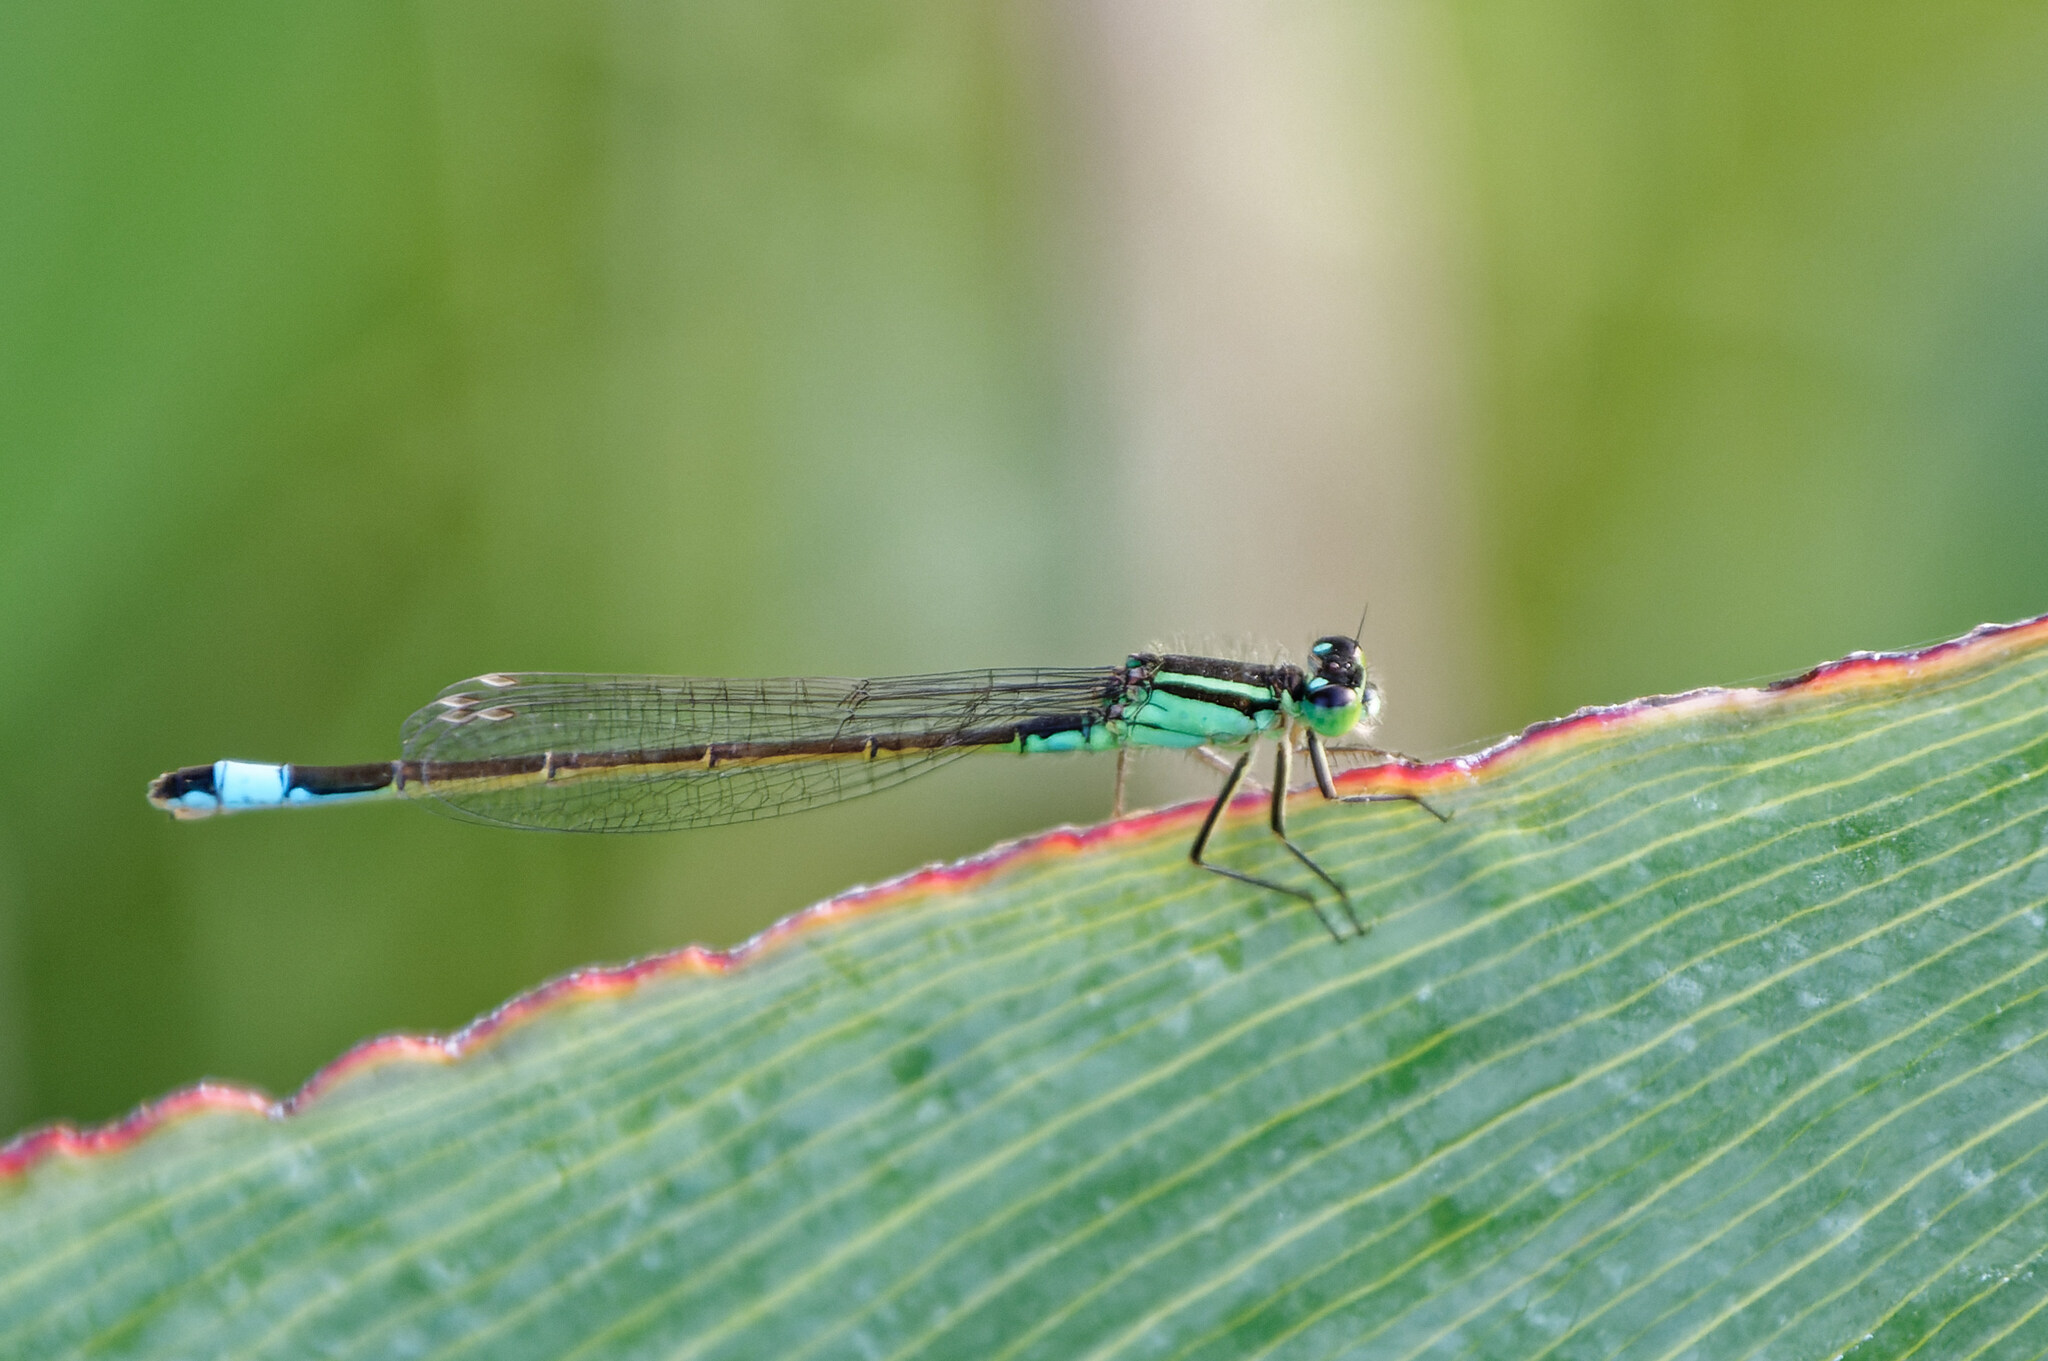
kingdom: Animalia
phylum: Arthropoda
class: Insecta
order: Odonata
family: Coenagrionidae
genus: Ischnura
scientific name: Ischnura elegans
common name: Blue-tailed damselfly
